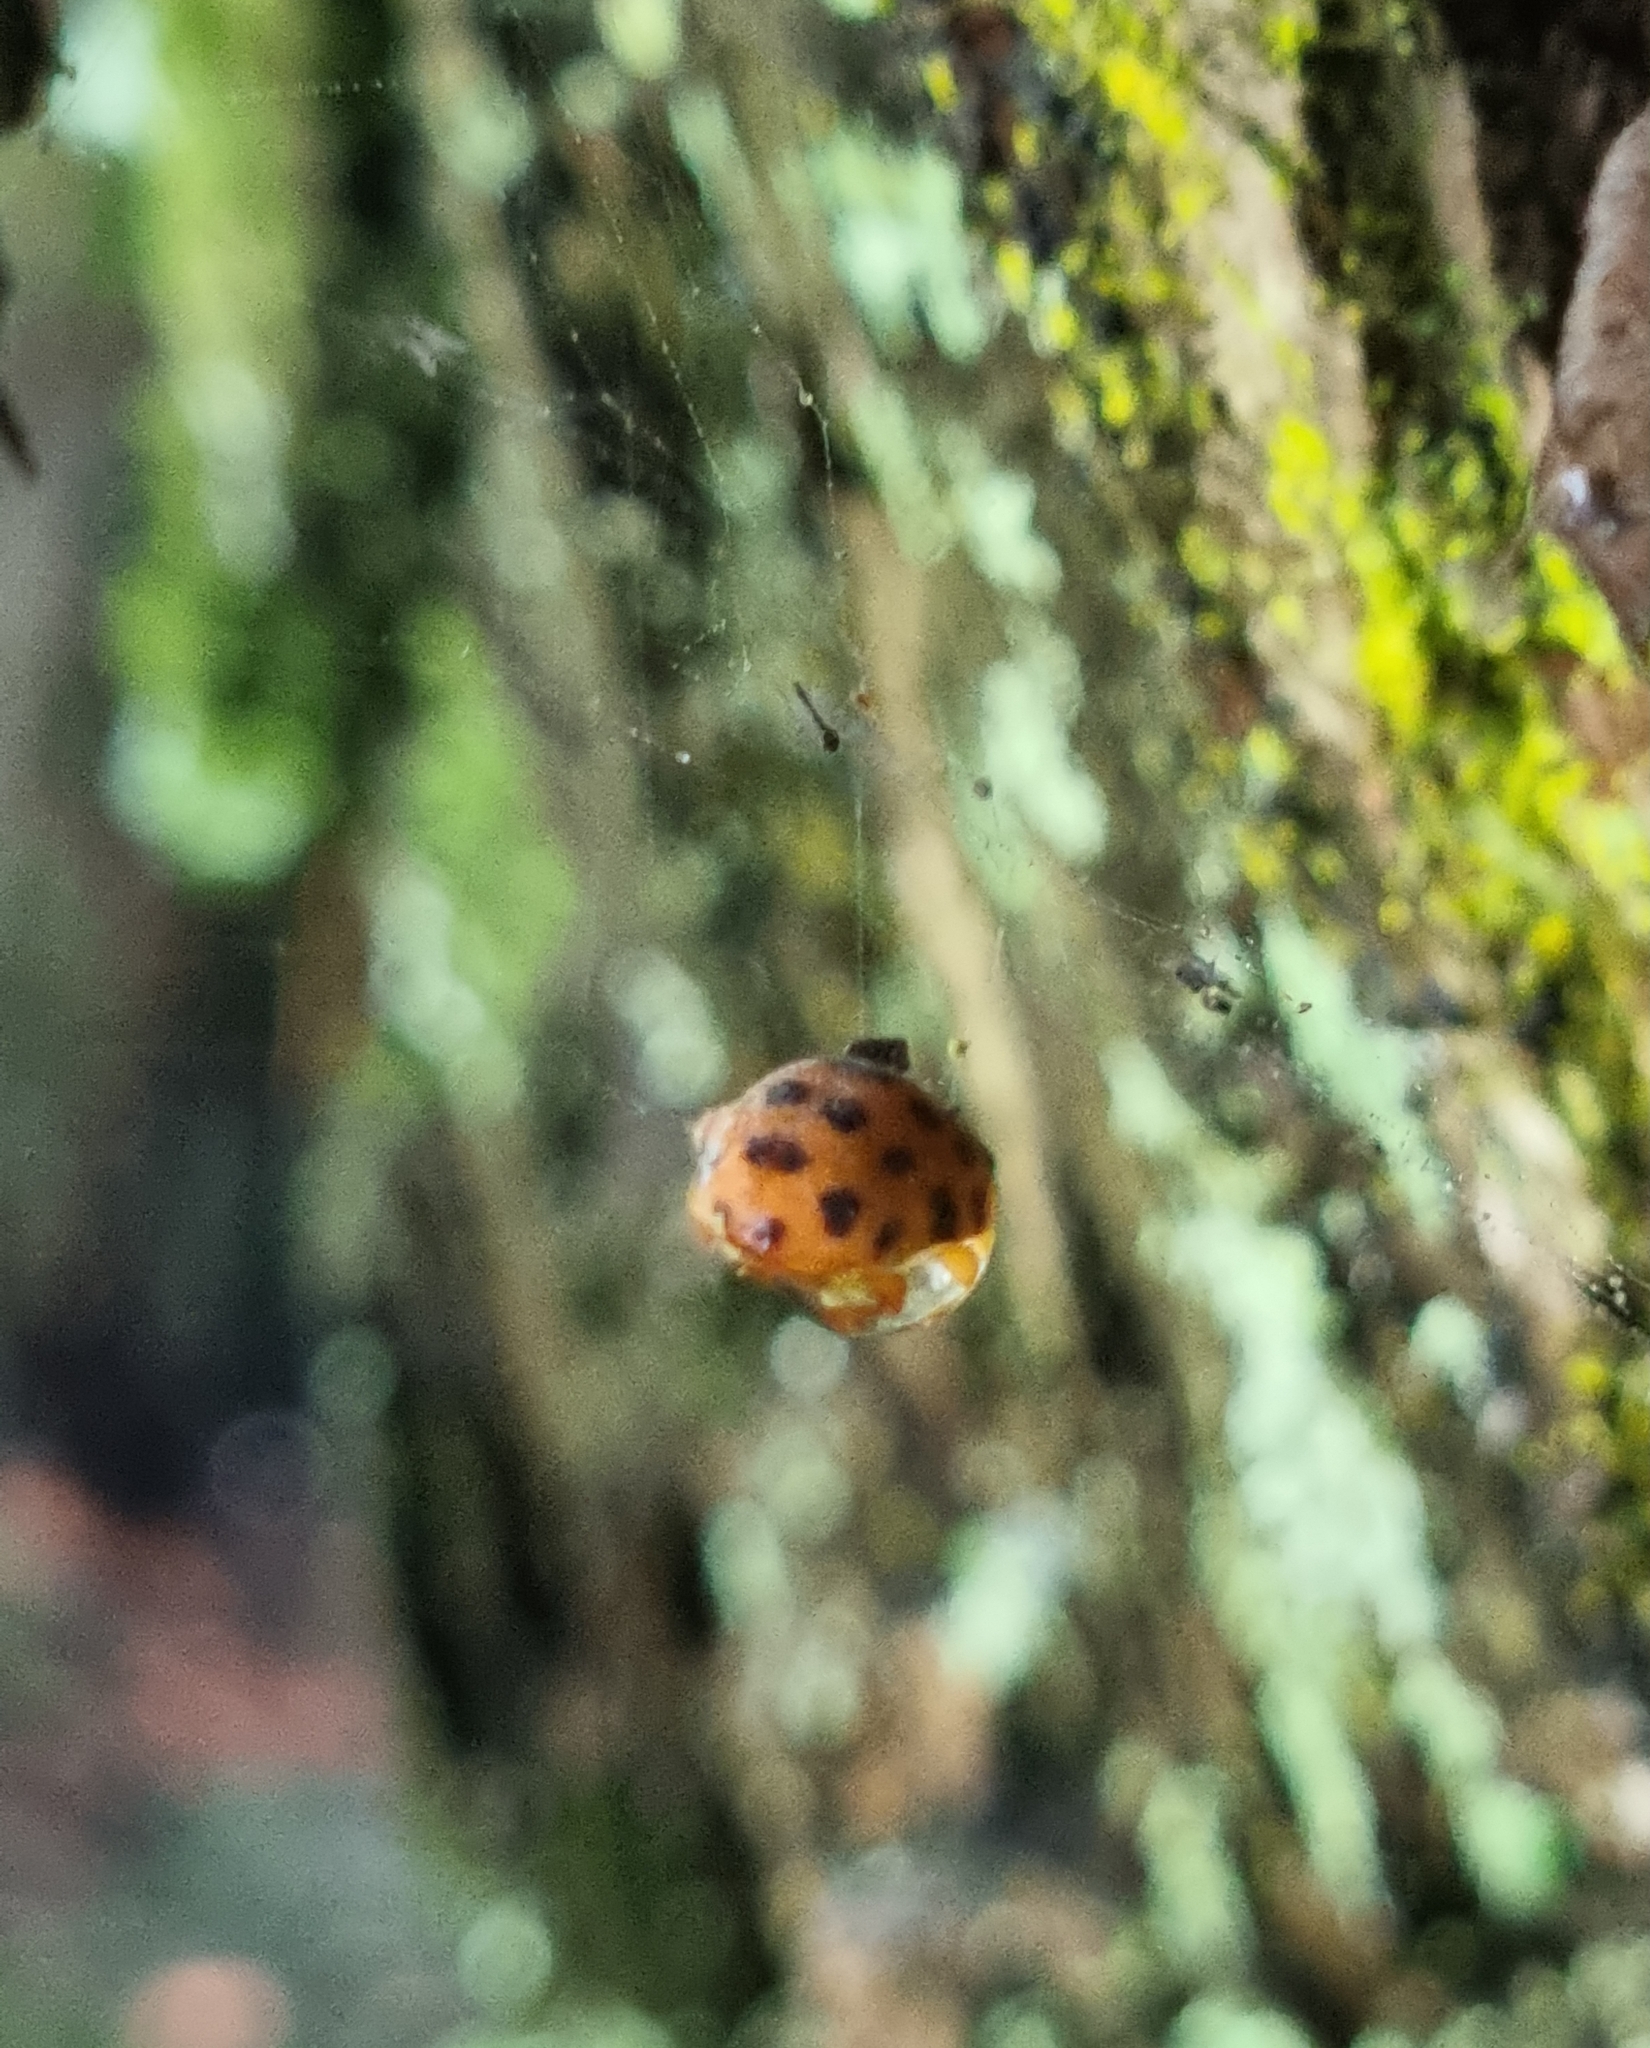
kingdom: Animalia
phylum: Arthropoda
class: Insecta
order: Coleoptera
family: Coccinellidae
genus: Henosepilachna
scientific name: Henosepilachna vigintioctopunctata
